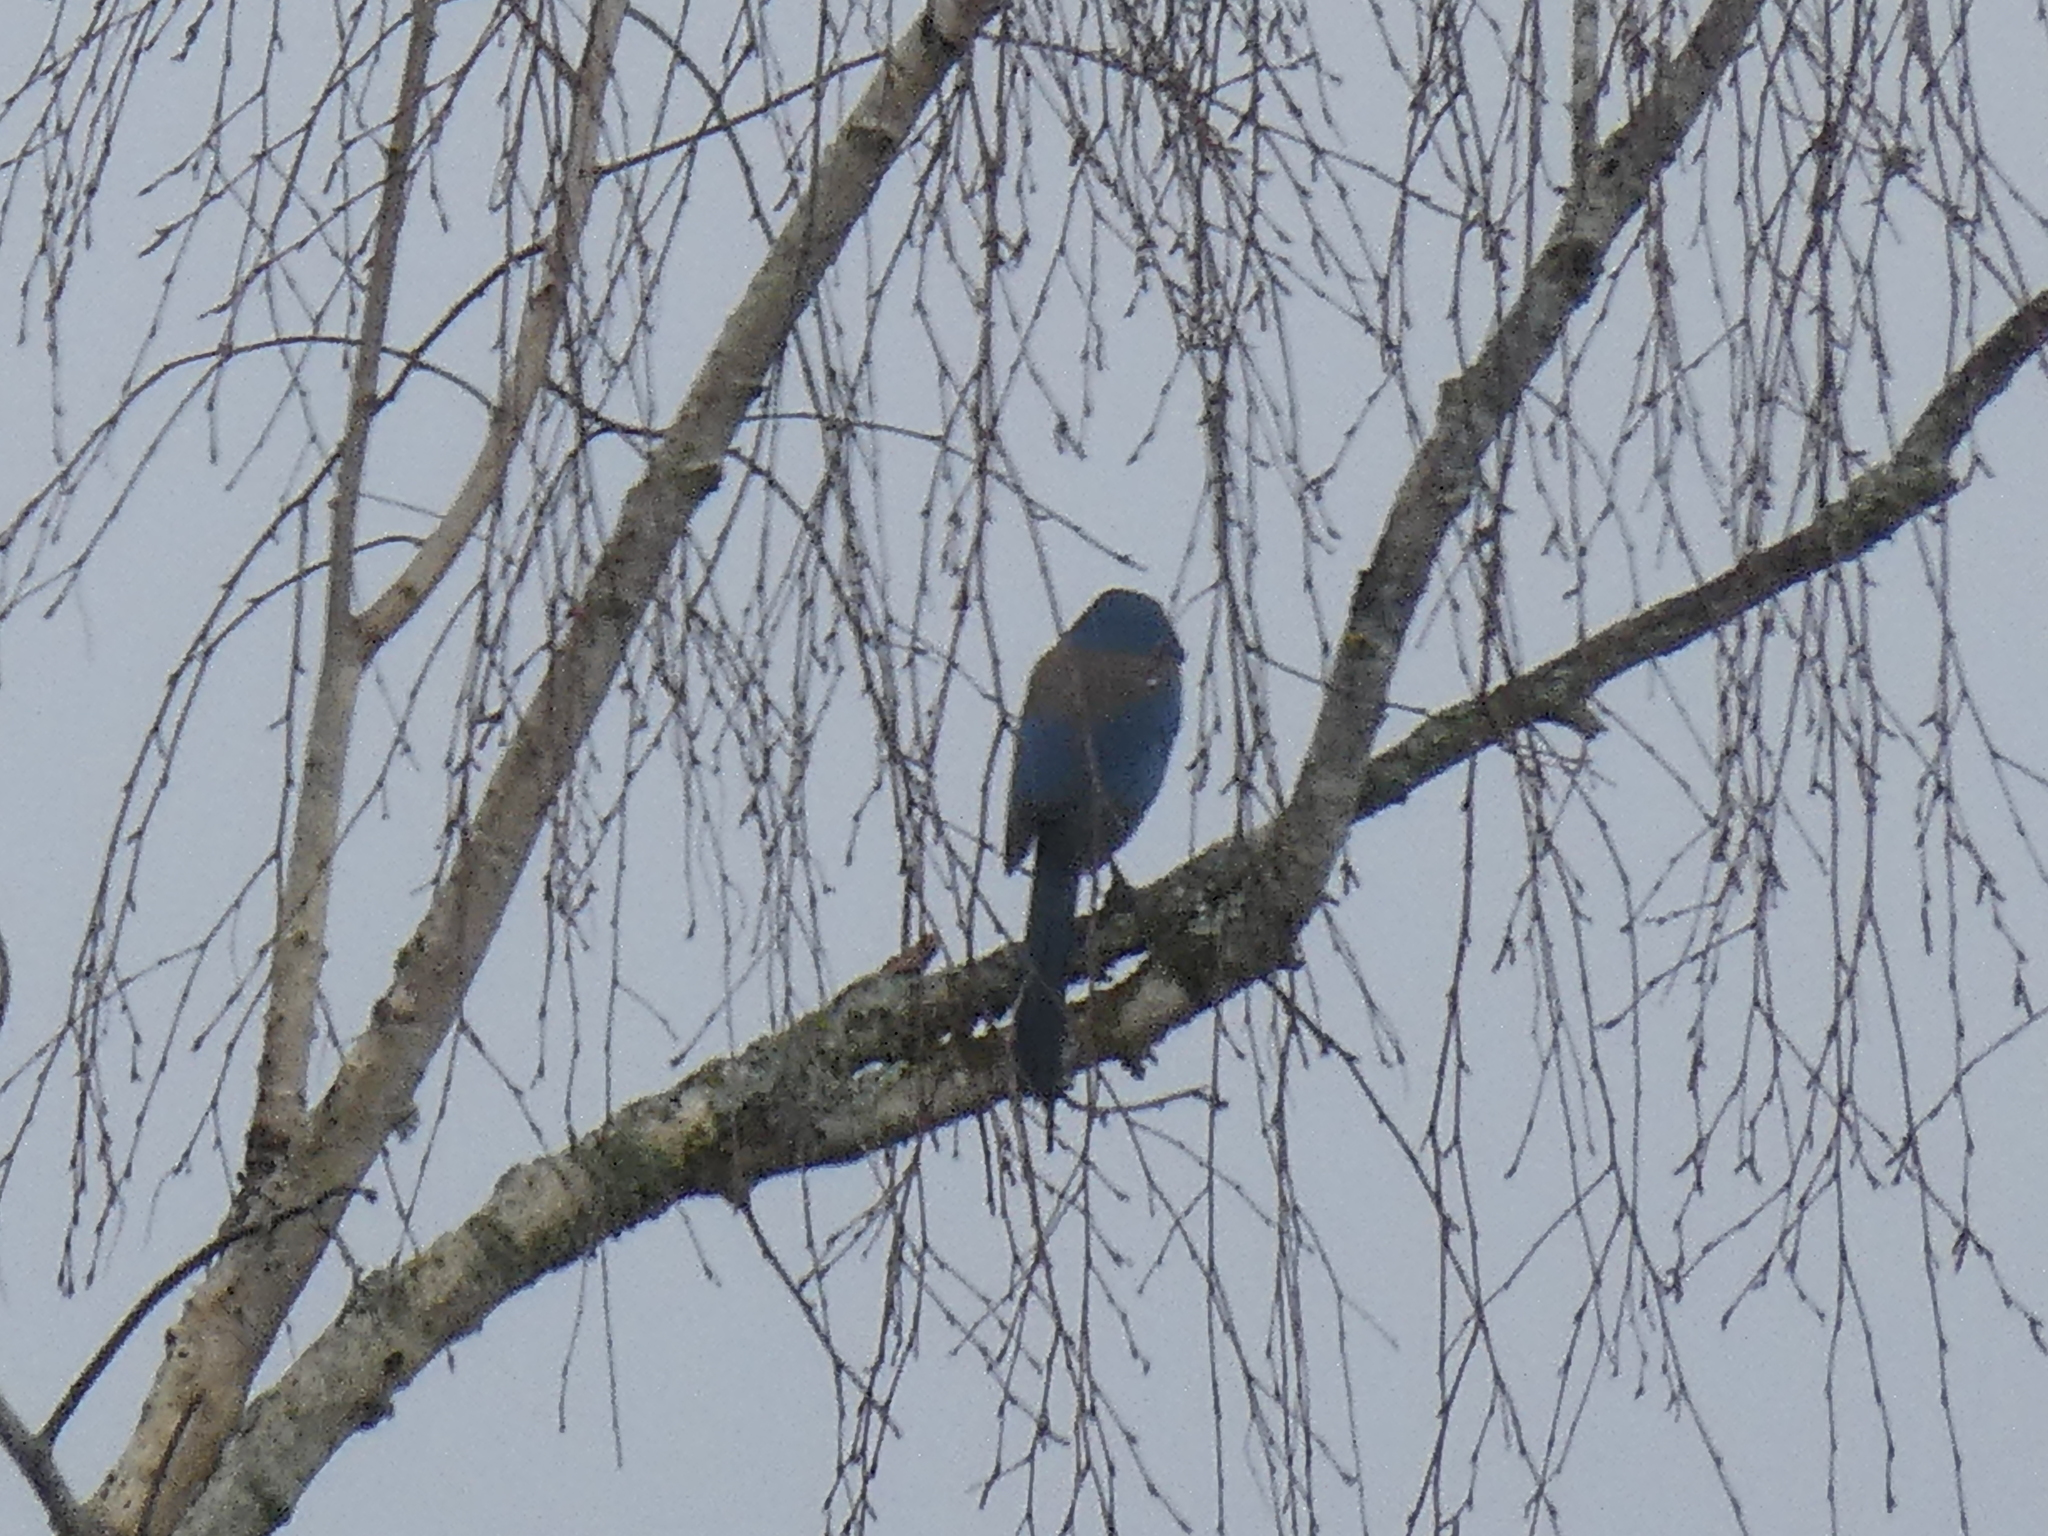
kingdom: Animalia
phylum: Chordata
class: Aves
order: Passeriformes
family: Corvidae
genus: Aphelocoma
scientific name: Aphelocoma californica
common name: California scrub-jay
